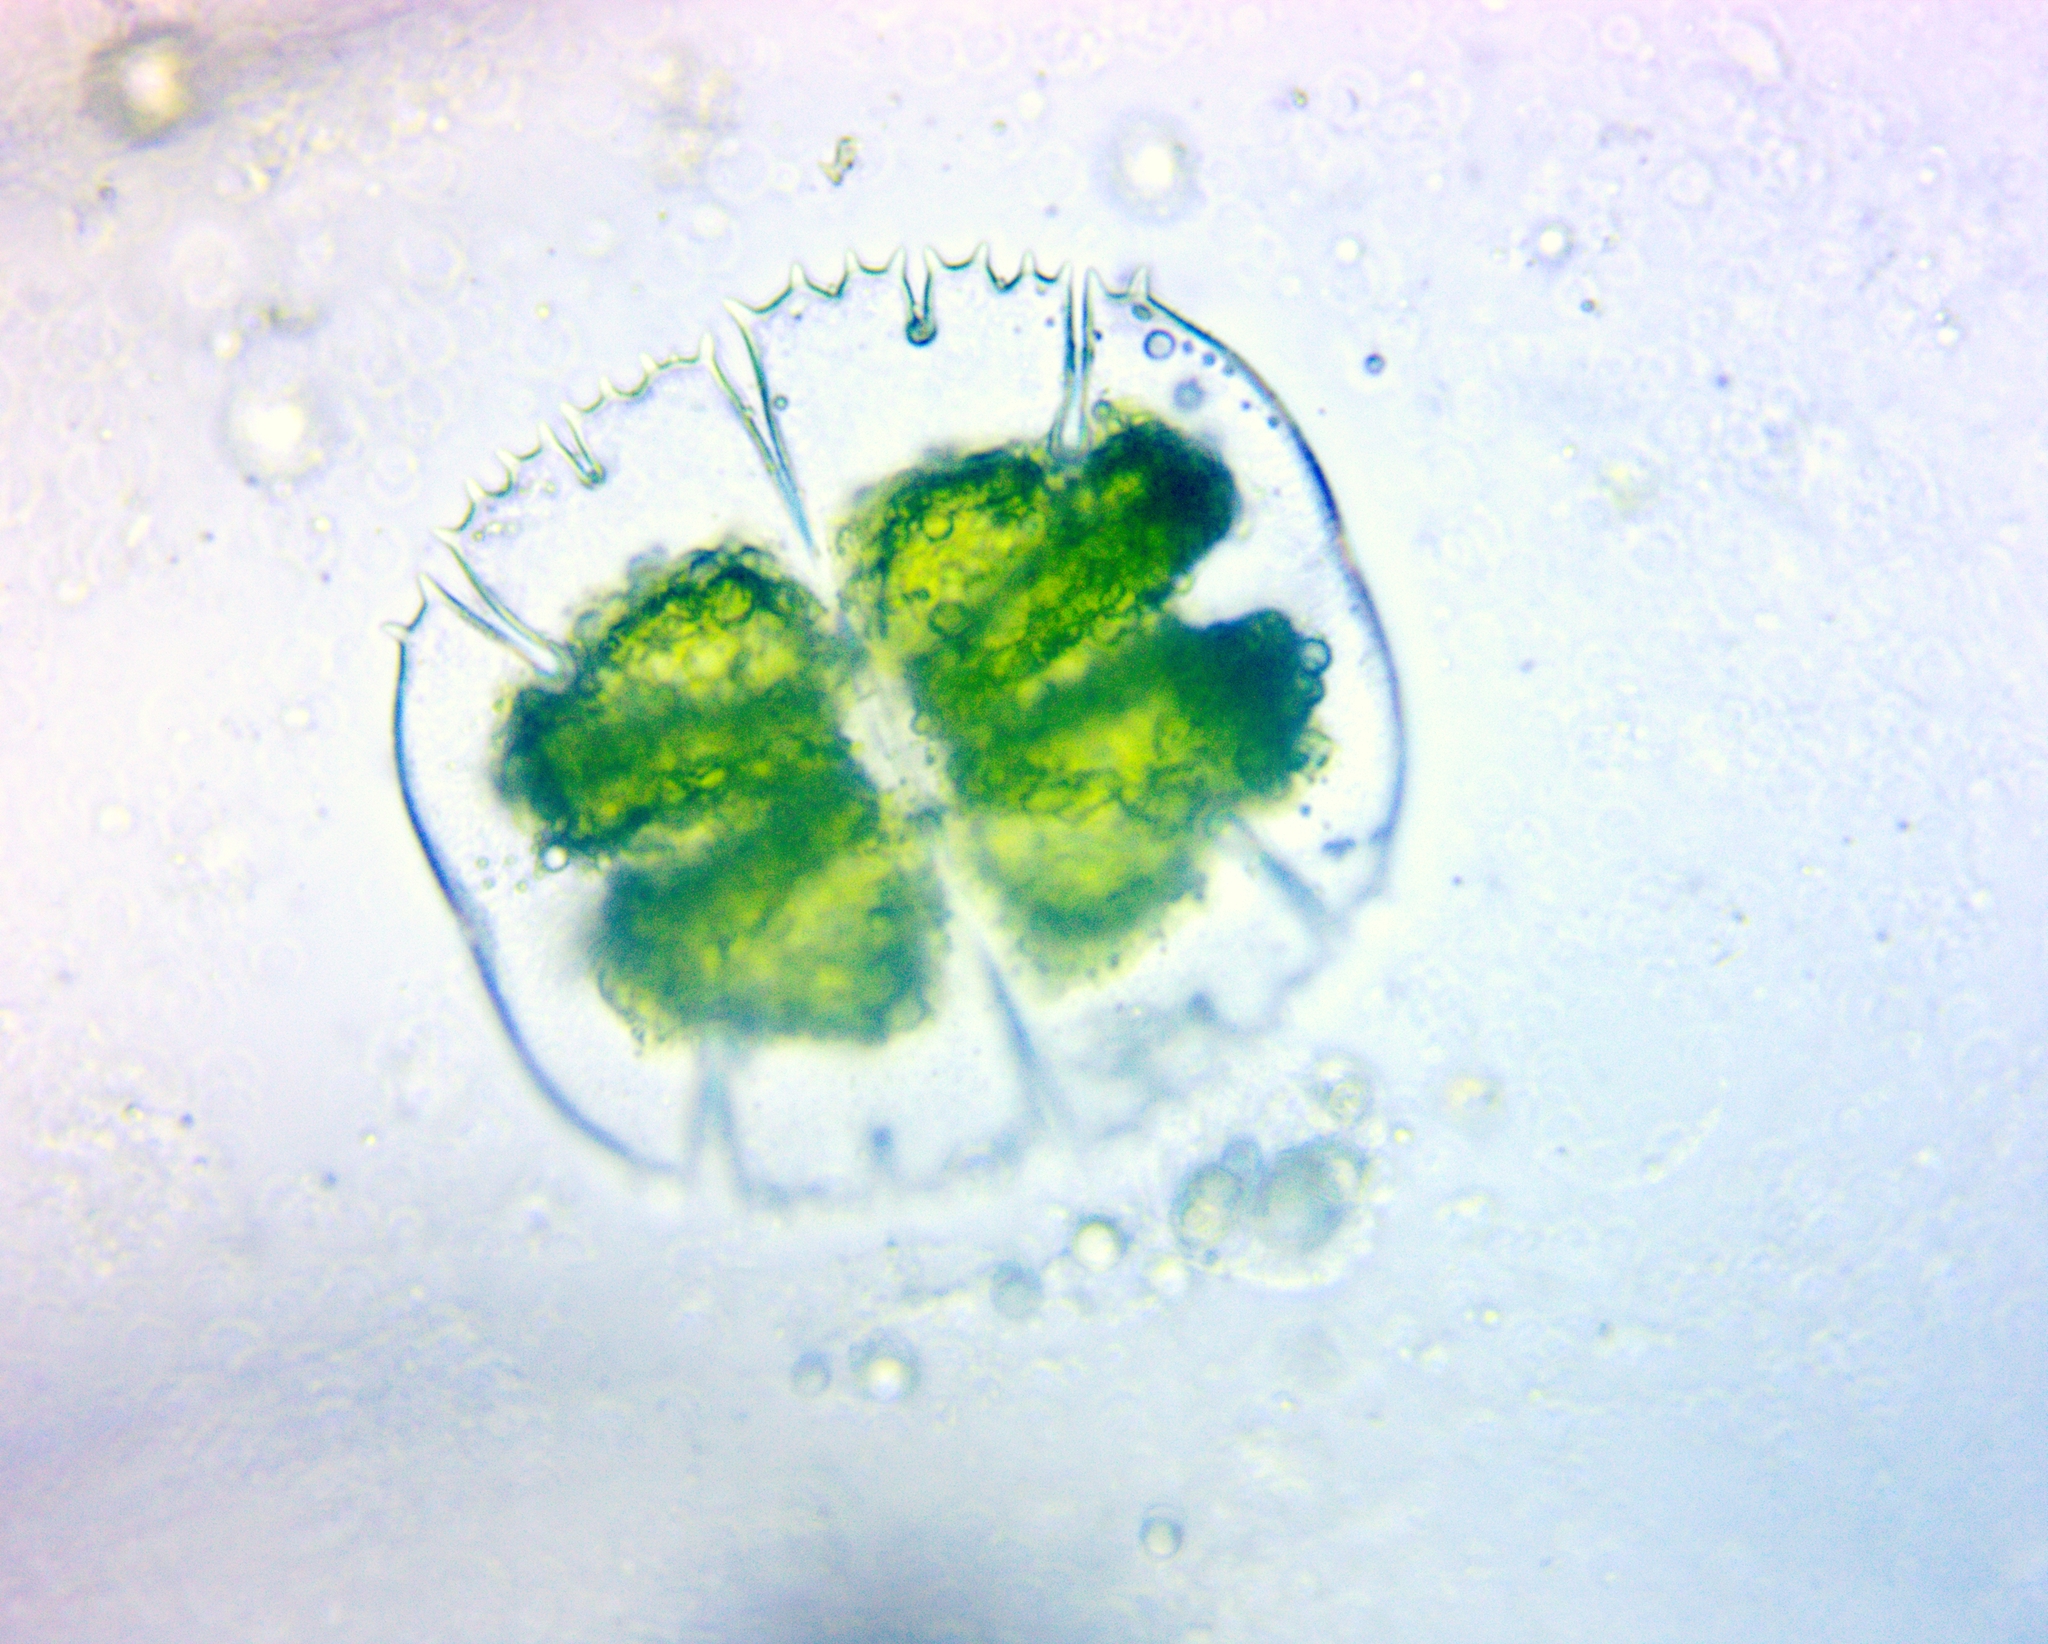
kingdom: Plantae
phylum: Charophyta
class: Conjugatophyceae
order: Desmidiales
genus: Micrasterias
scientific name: Micrasterias truncata
